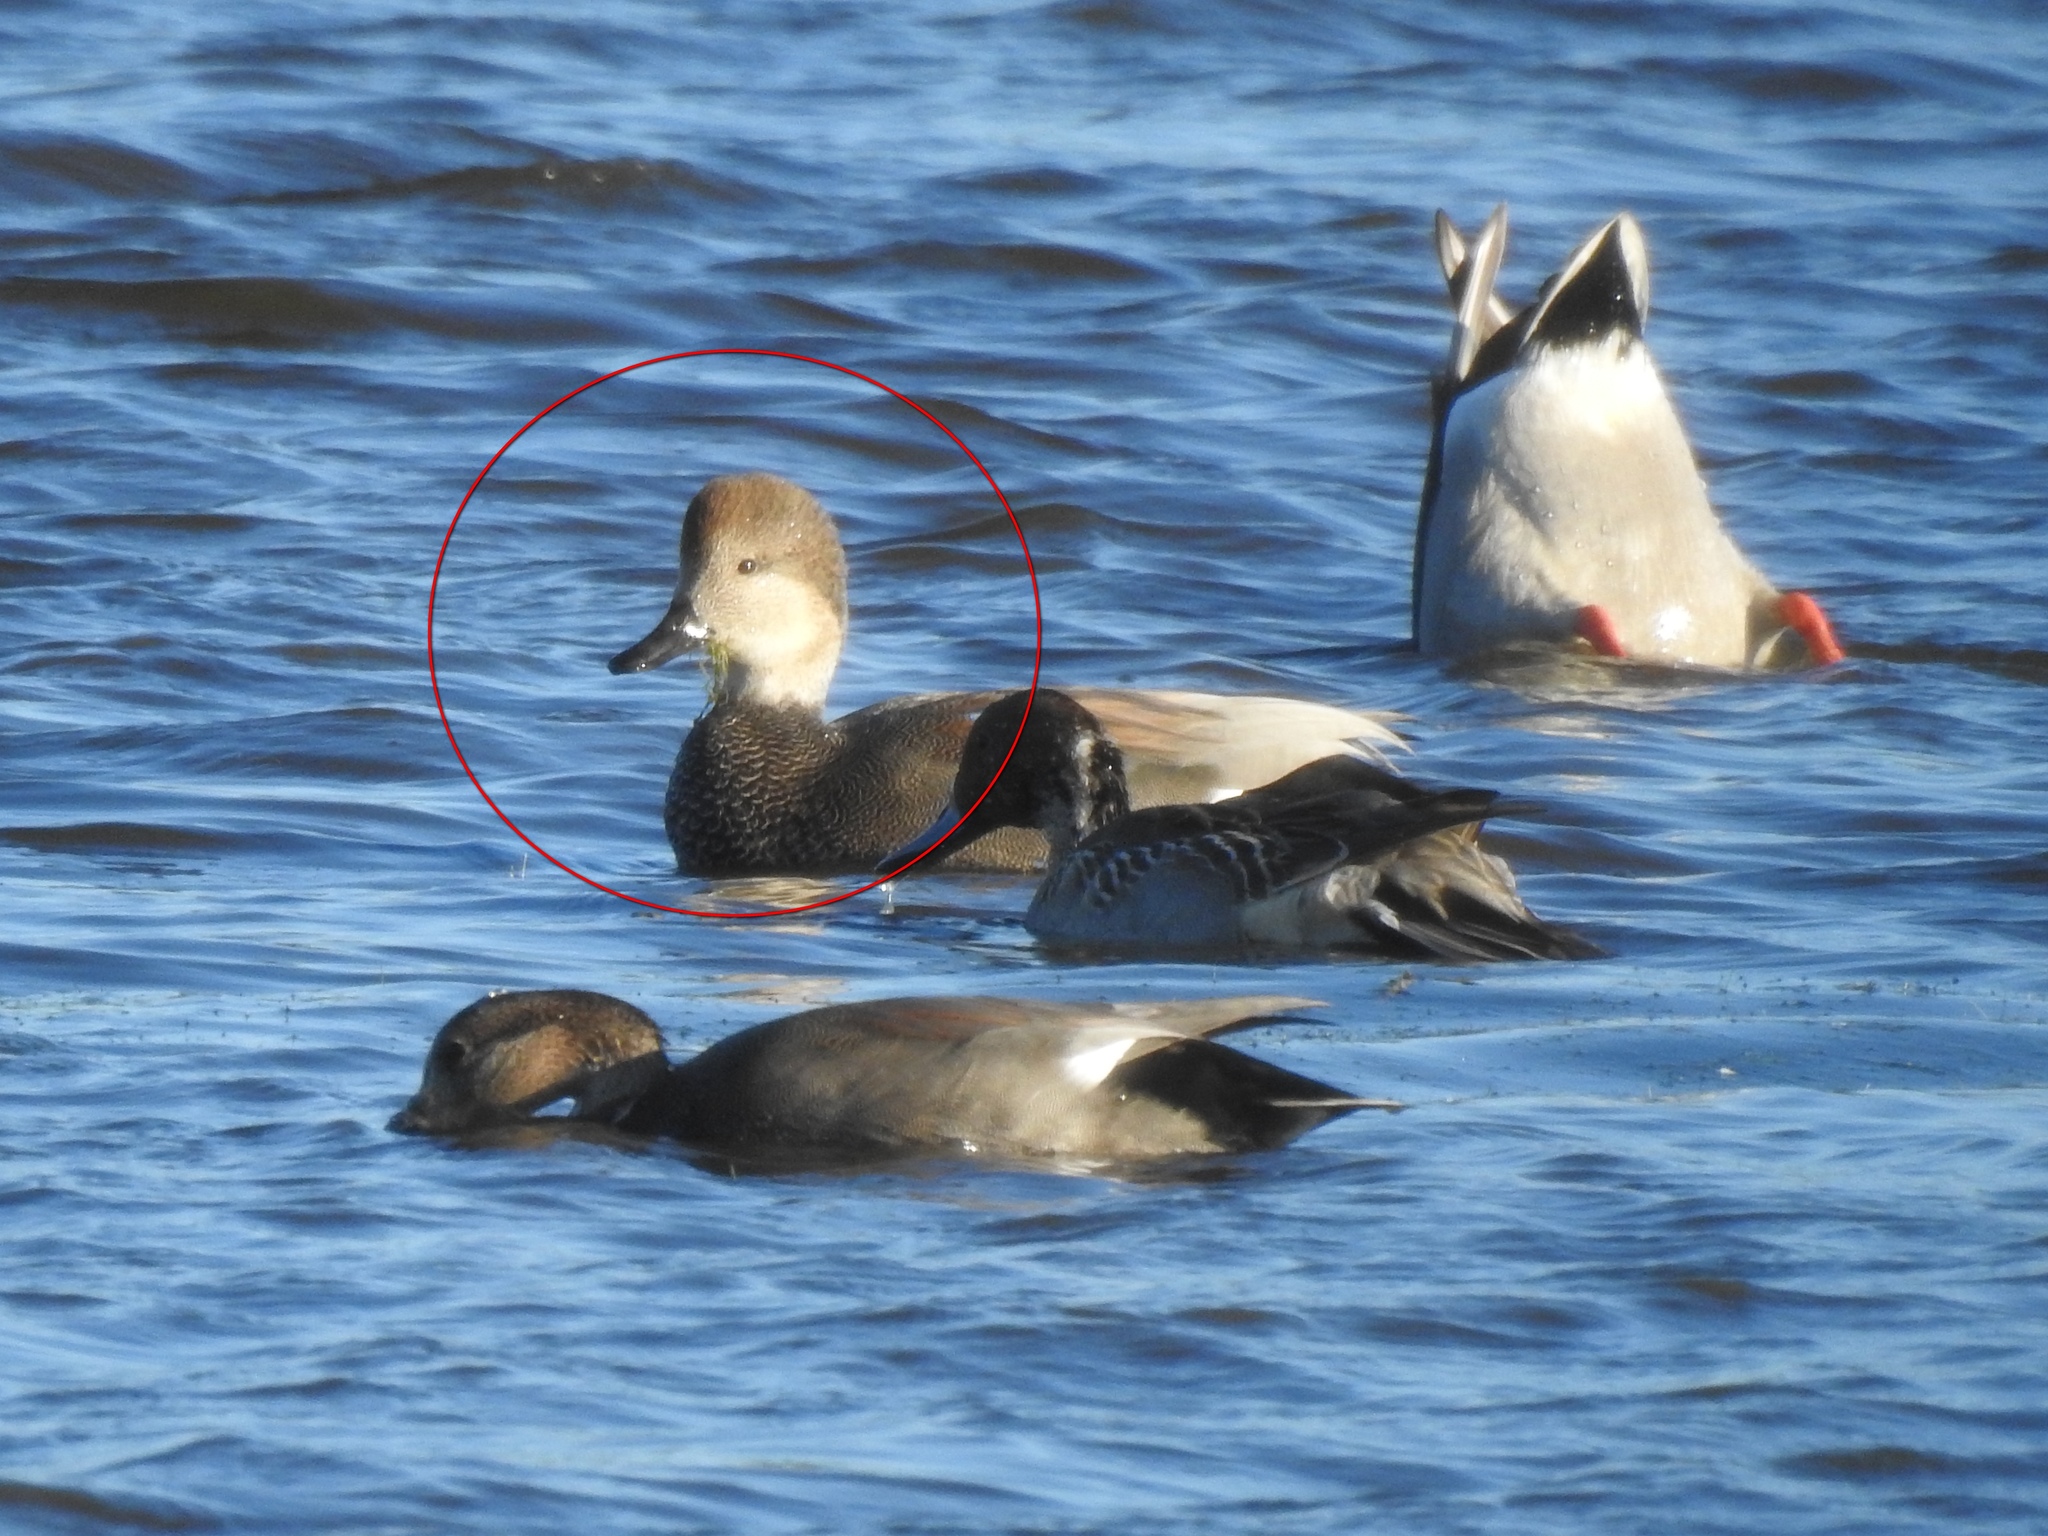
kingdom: Animalia
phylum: Chordata
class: Aves
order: Anseriformes
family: Anatidae
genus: Mareca
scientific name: Mareca strepera
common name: Gadwall
